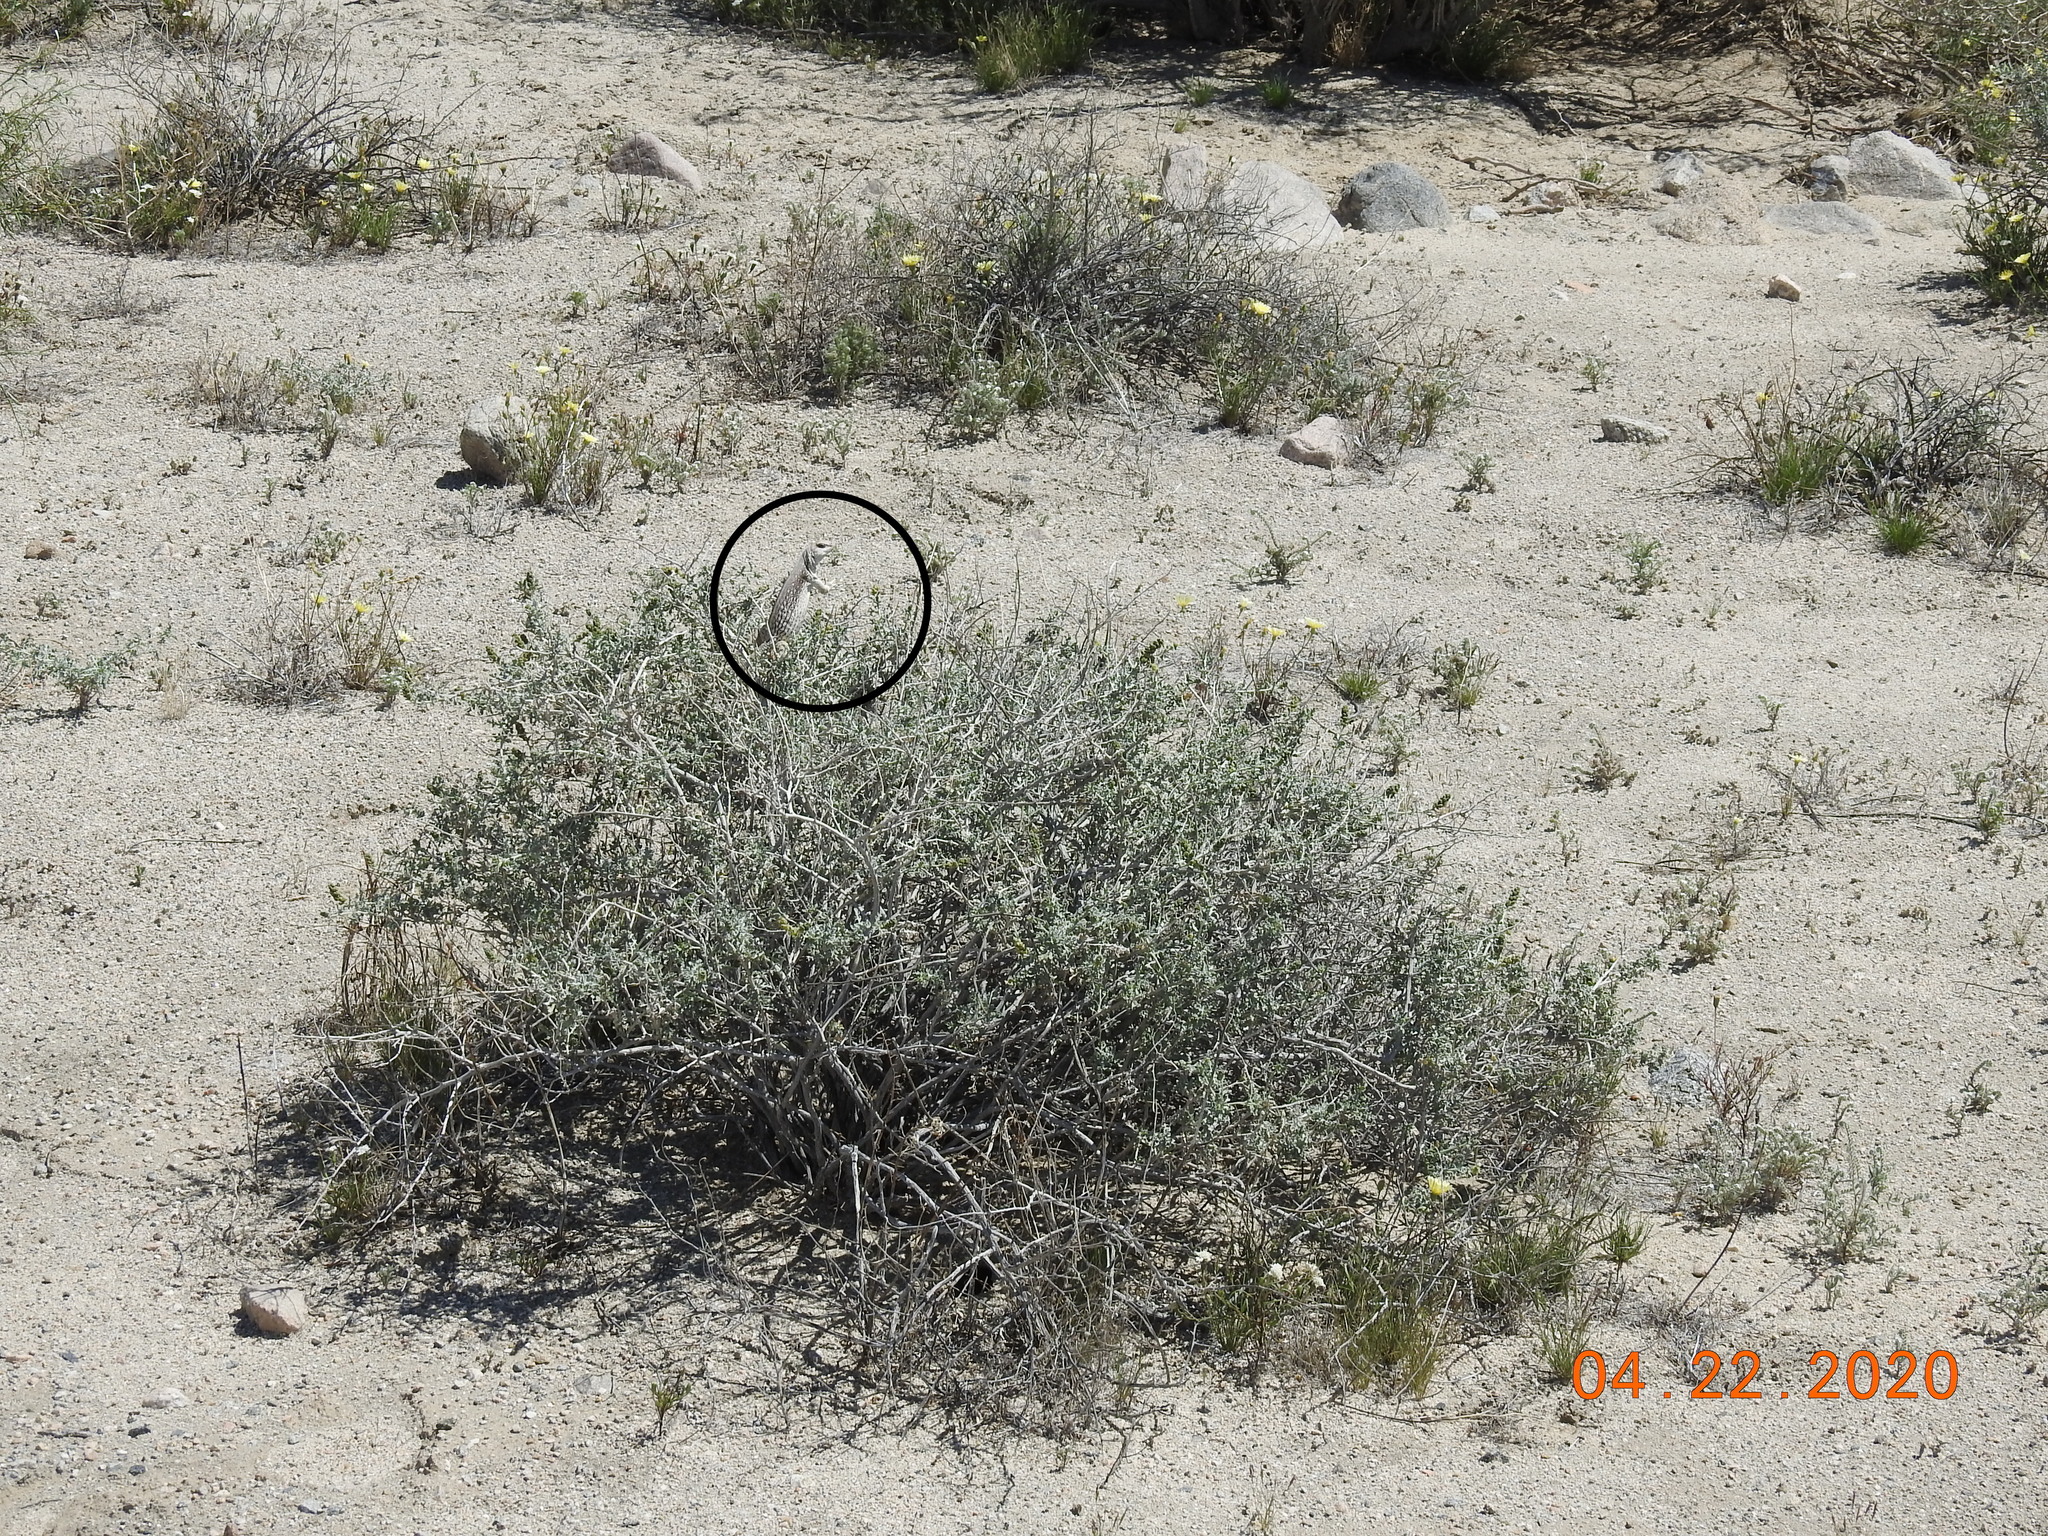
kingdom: Animalia
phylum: Chordata
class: Squamata
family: Iguanidae
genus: Dipsosaurus
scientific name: Dipsosaurus dorsalis
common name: Desert iguana
